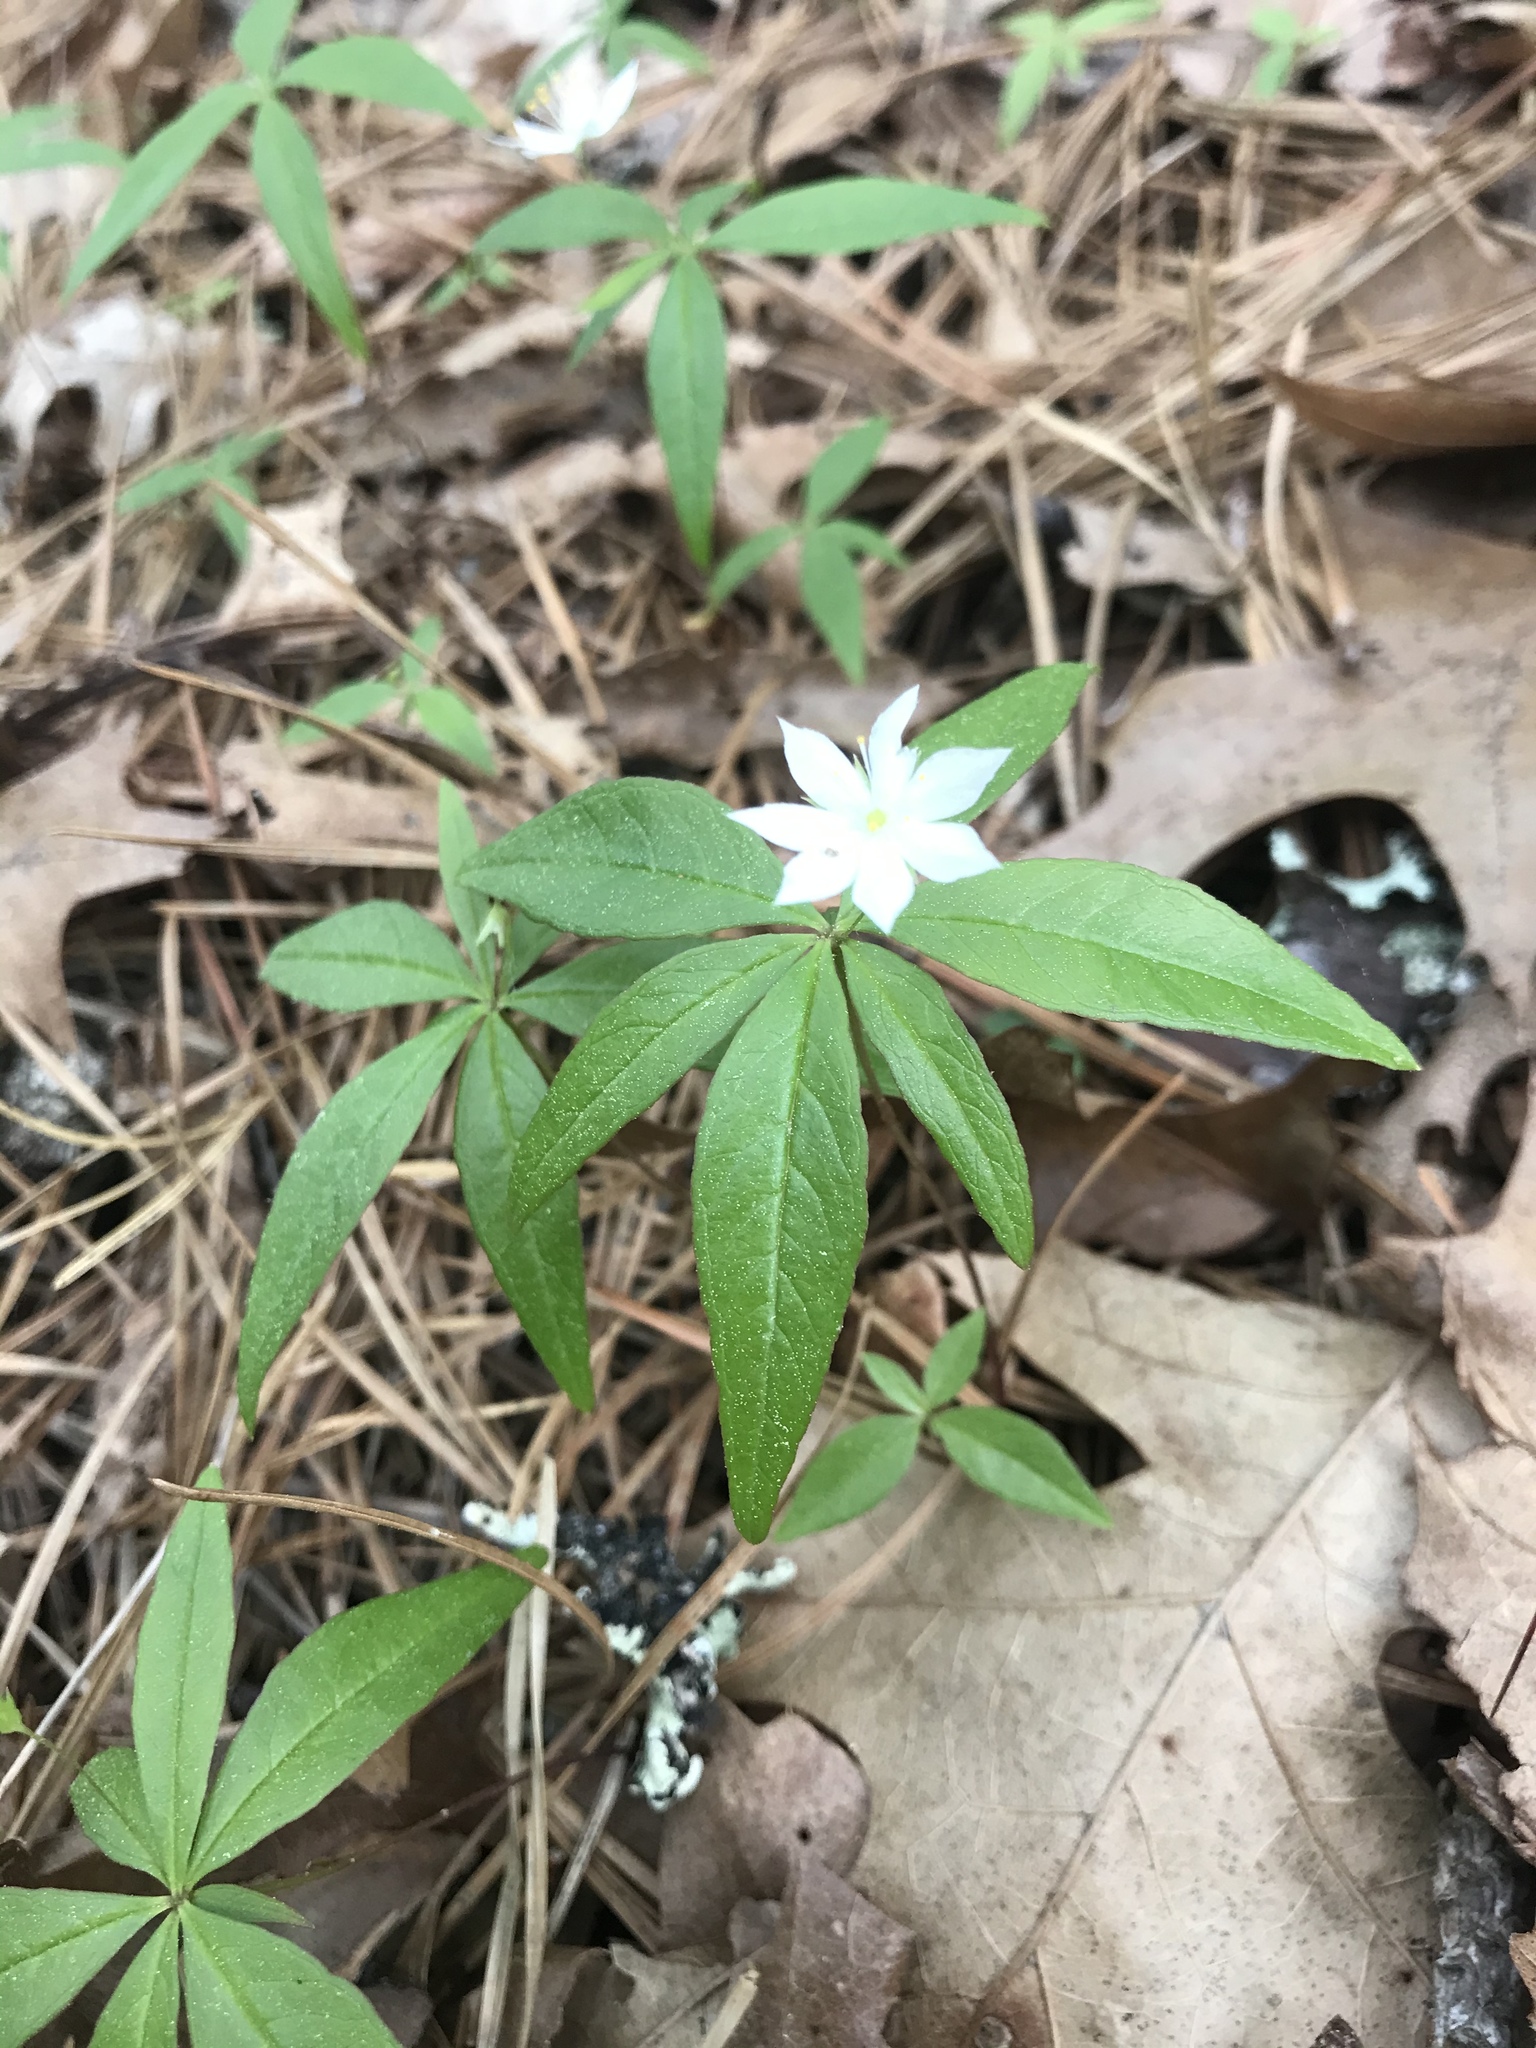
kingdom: Plantae
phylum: Tracheophyta
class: Magnoliopsida
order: Ericales
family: Primulaceae
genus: Lysimachia
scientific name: Lysimachia borealis
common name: American starflower
